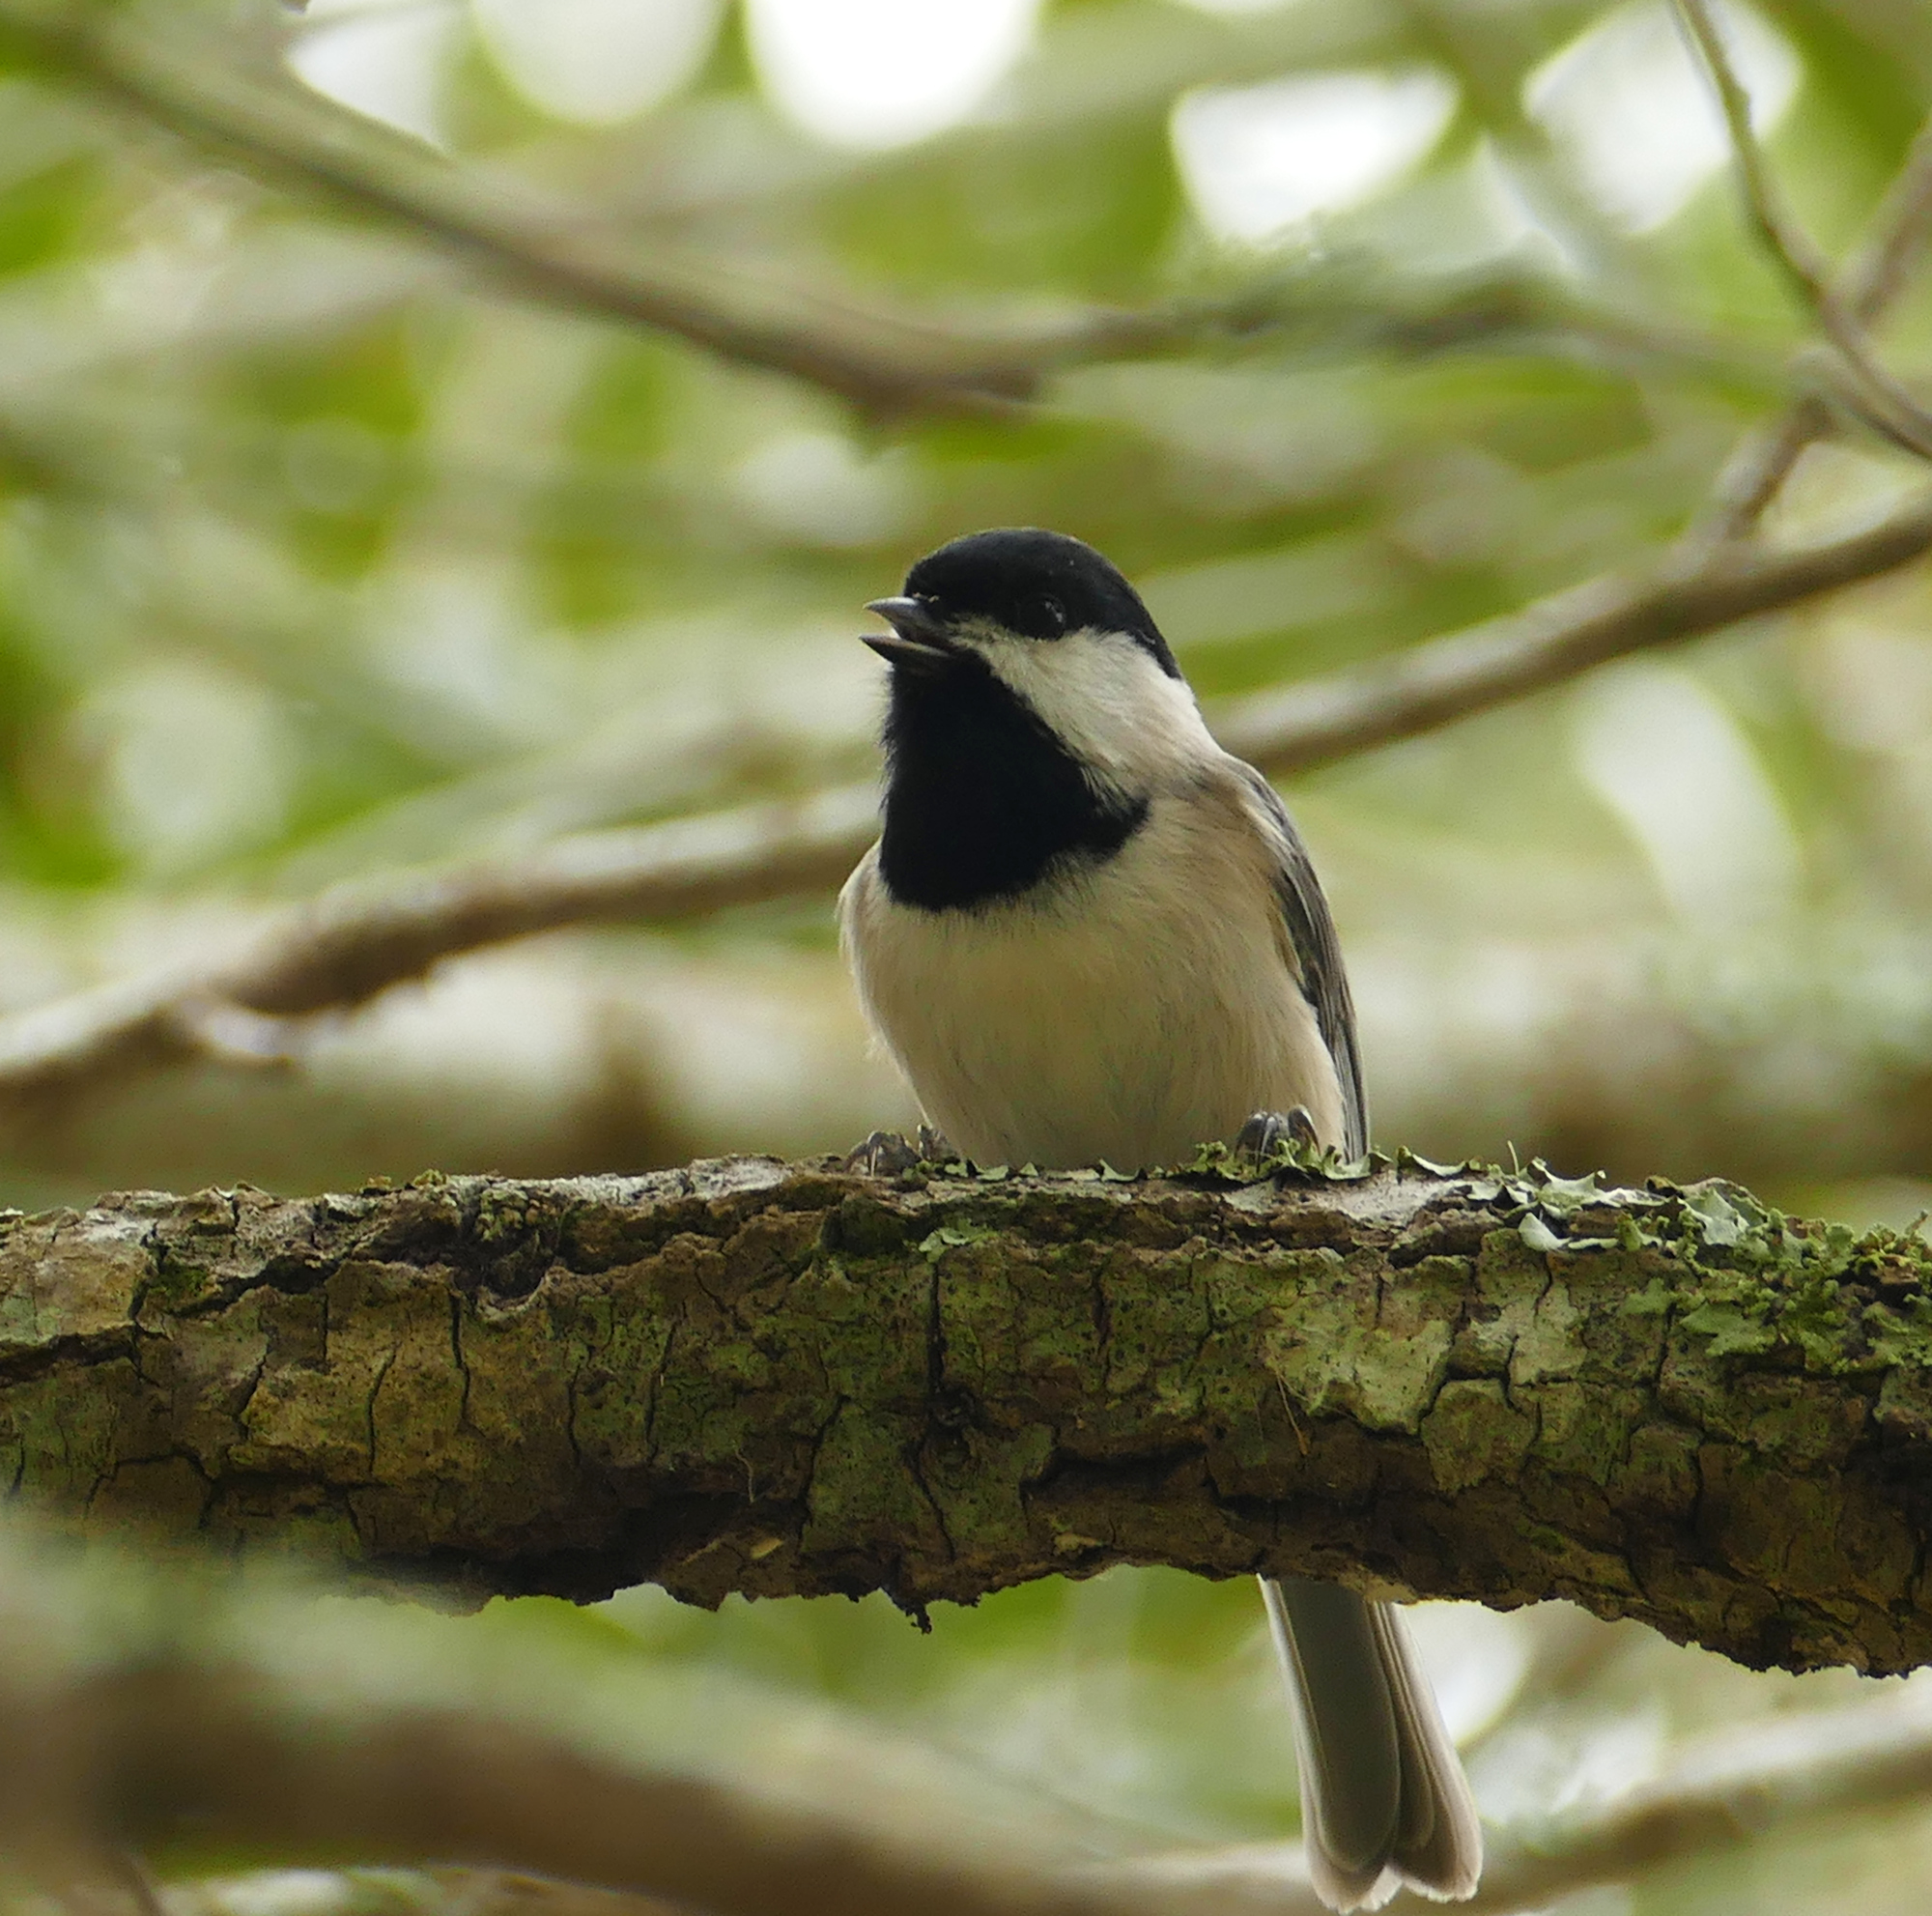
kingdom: Animalia
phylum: Chordata
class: Aves
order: Passeriformes
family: Paridae
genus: Poecile
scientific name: Poecile carolinensis
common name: Carolina chickadee
